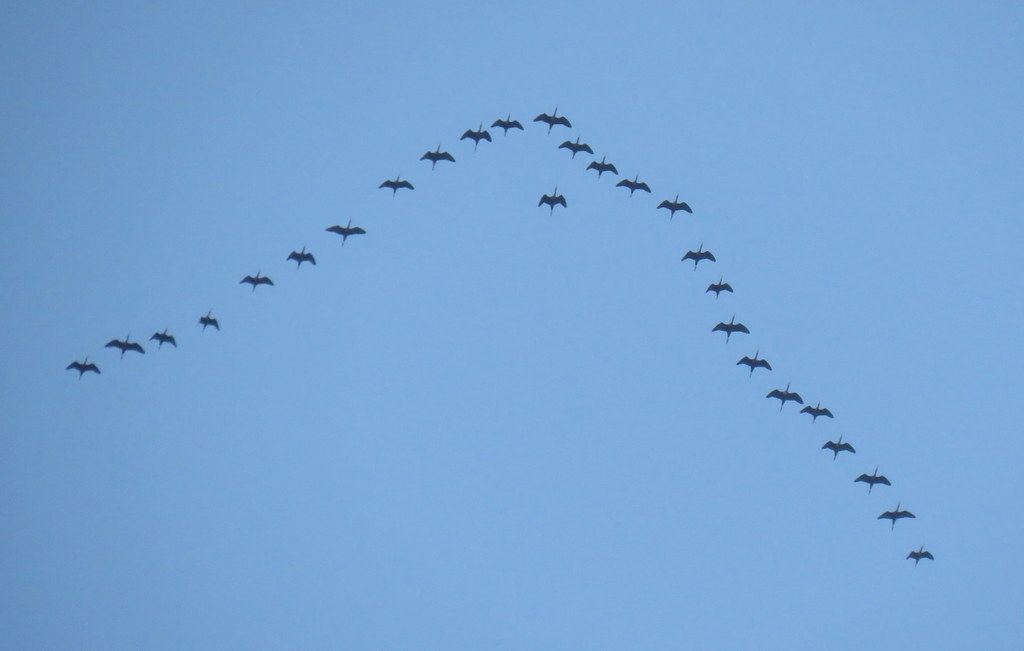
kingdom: Animalia
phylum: Chordata
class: Aves
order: Pelecaniformes
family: Threskiornithidae
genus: Plegadis
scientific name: Plegadis chihi
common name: White-faced ibis
